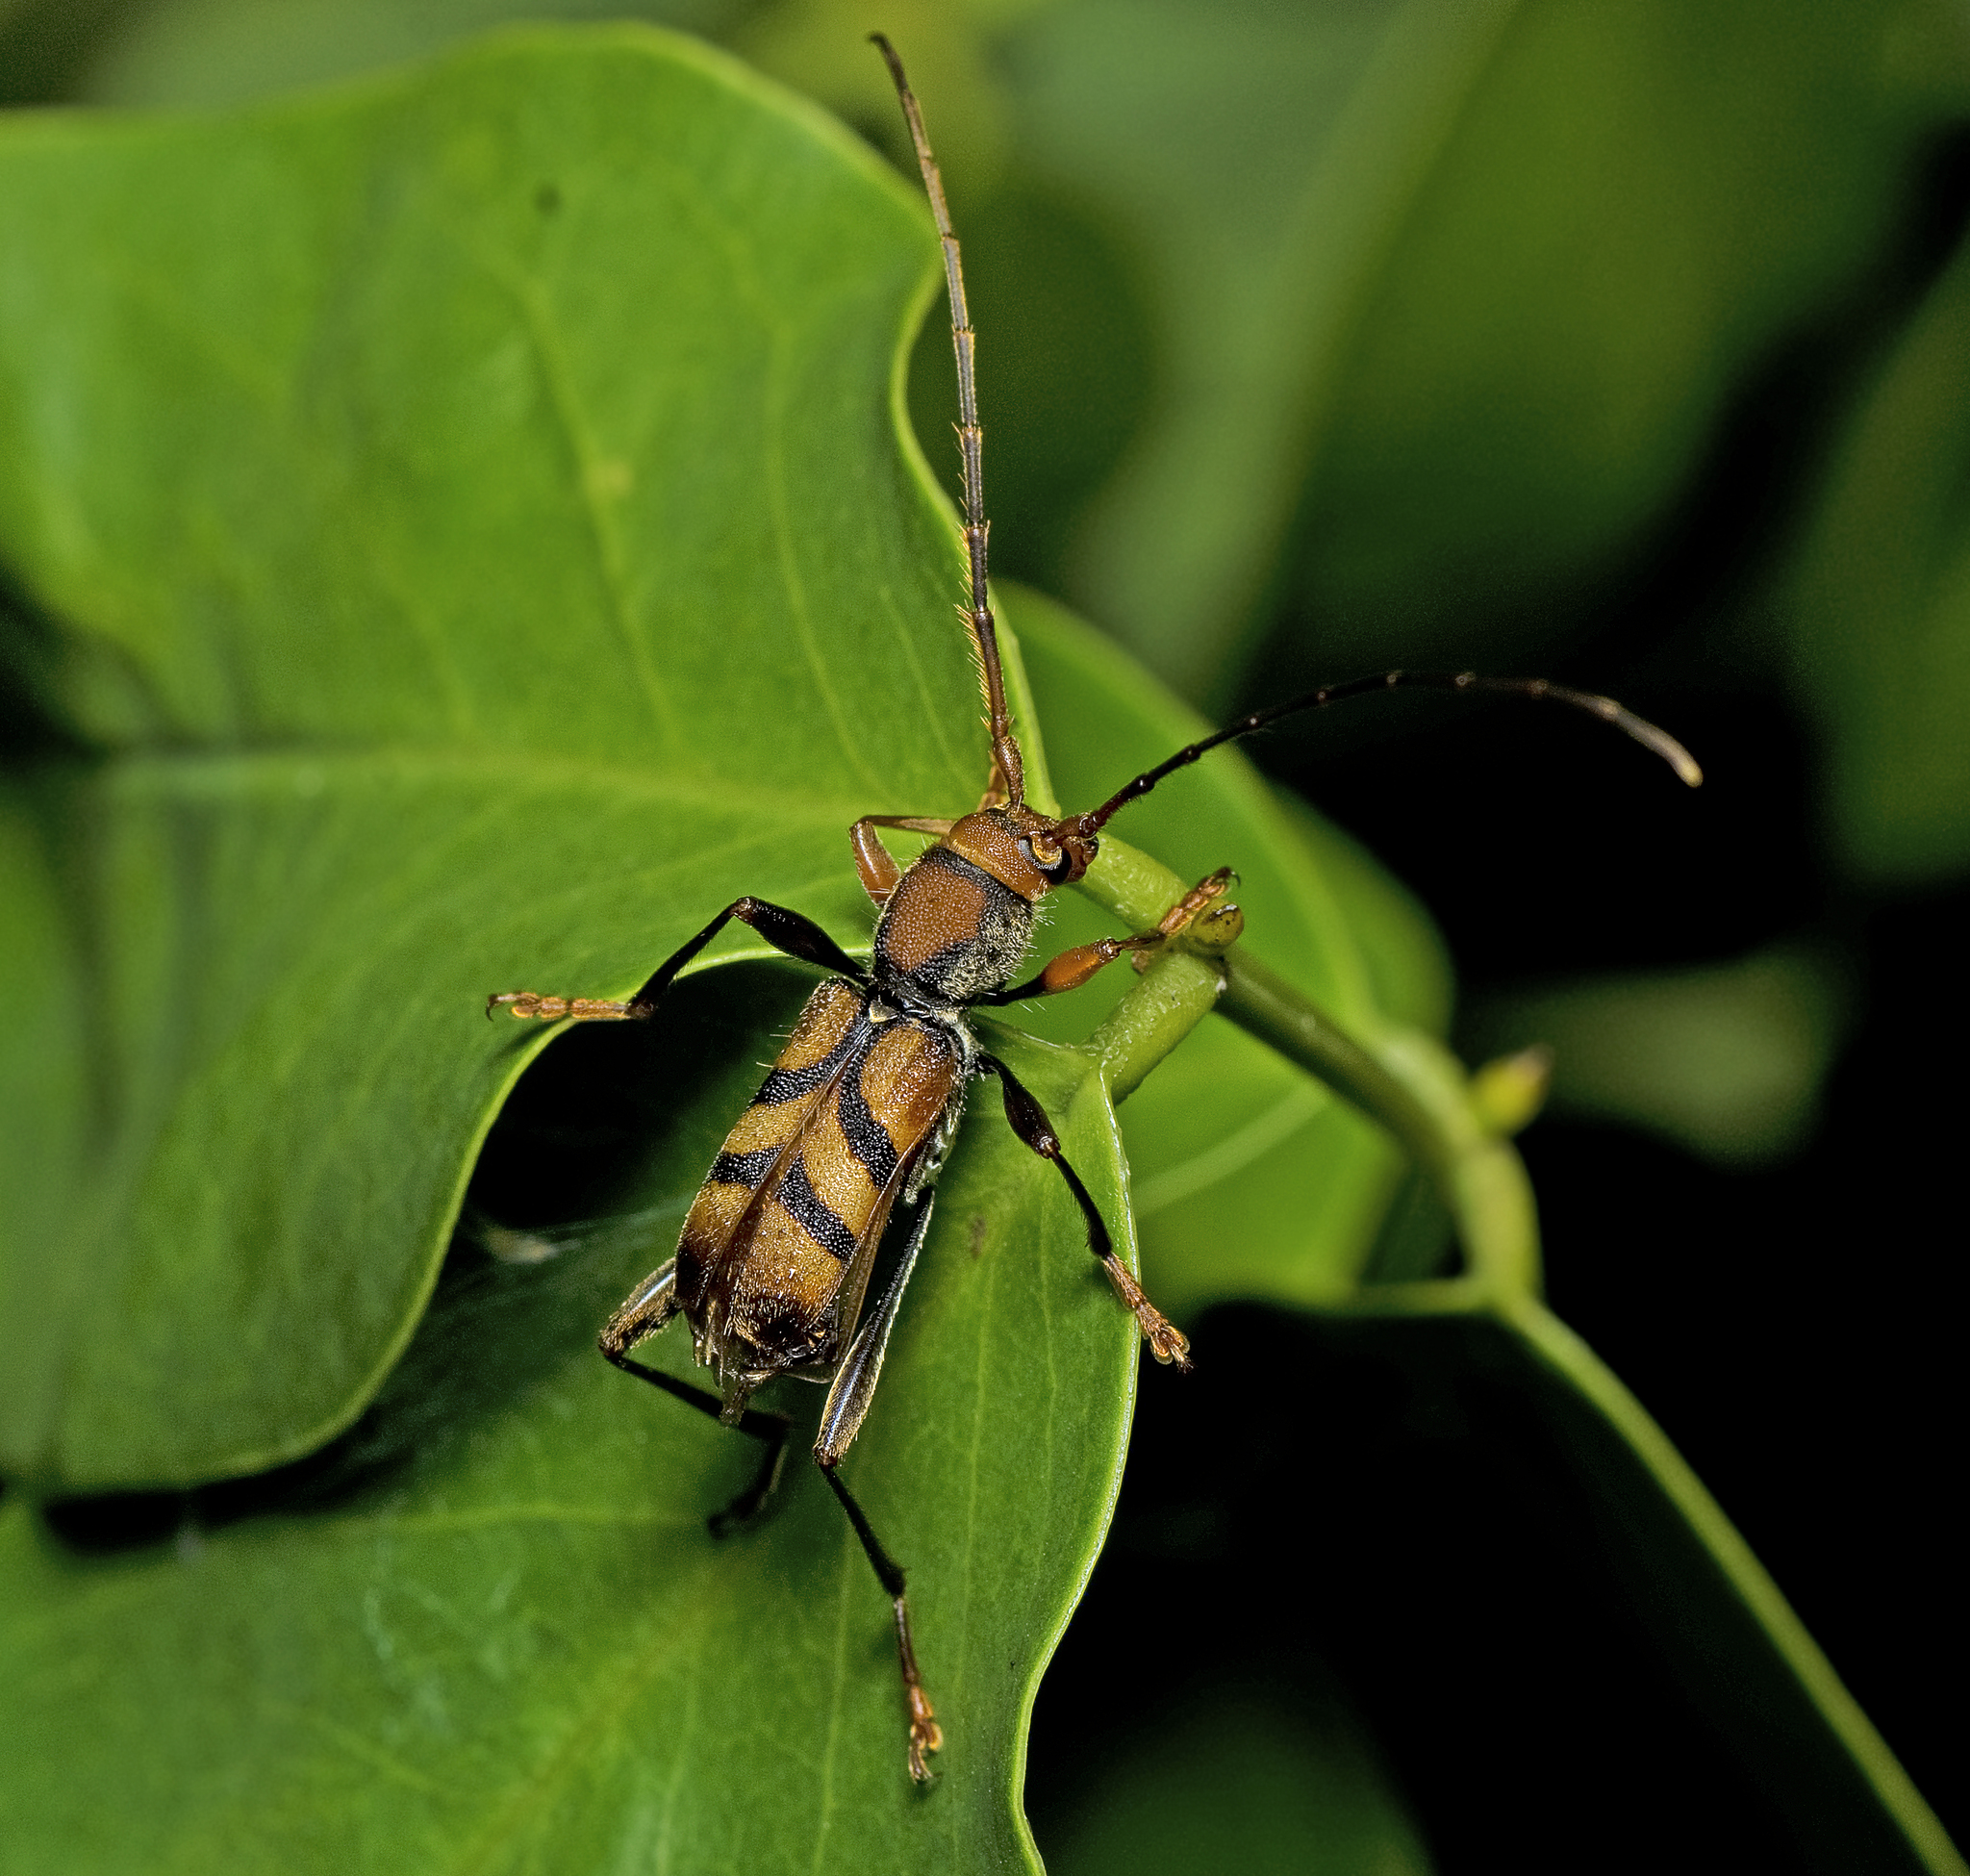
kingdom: Animalia
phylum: Arthropoda
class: Insecta
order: Coleoptera
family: Cerambycidae
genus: Aridaeus
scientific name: Aridaeus thoracicus
